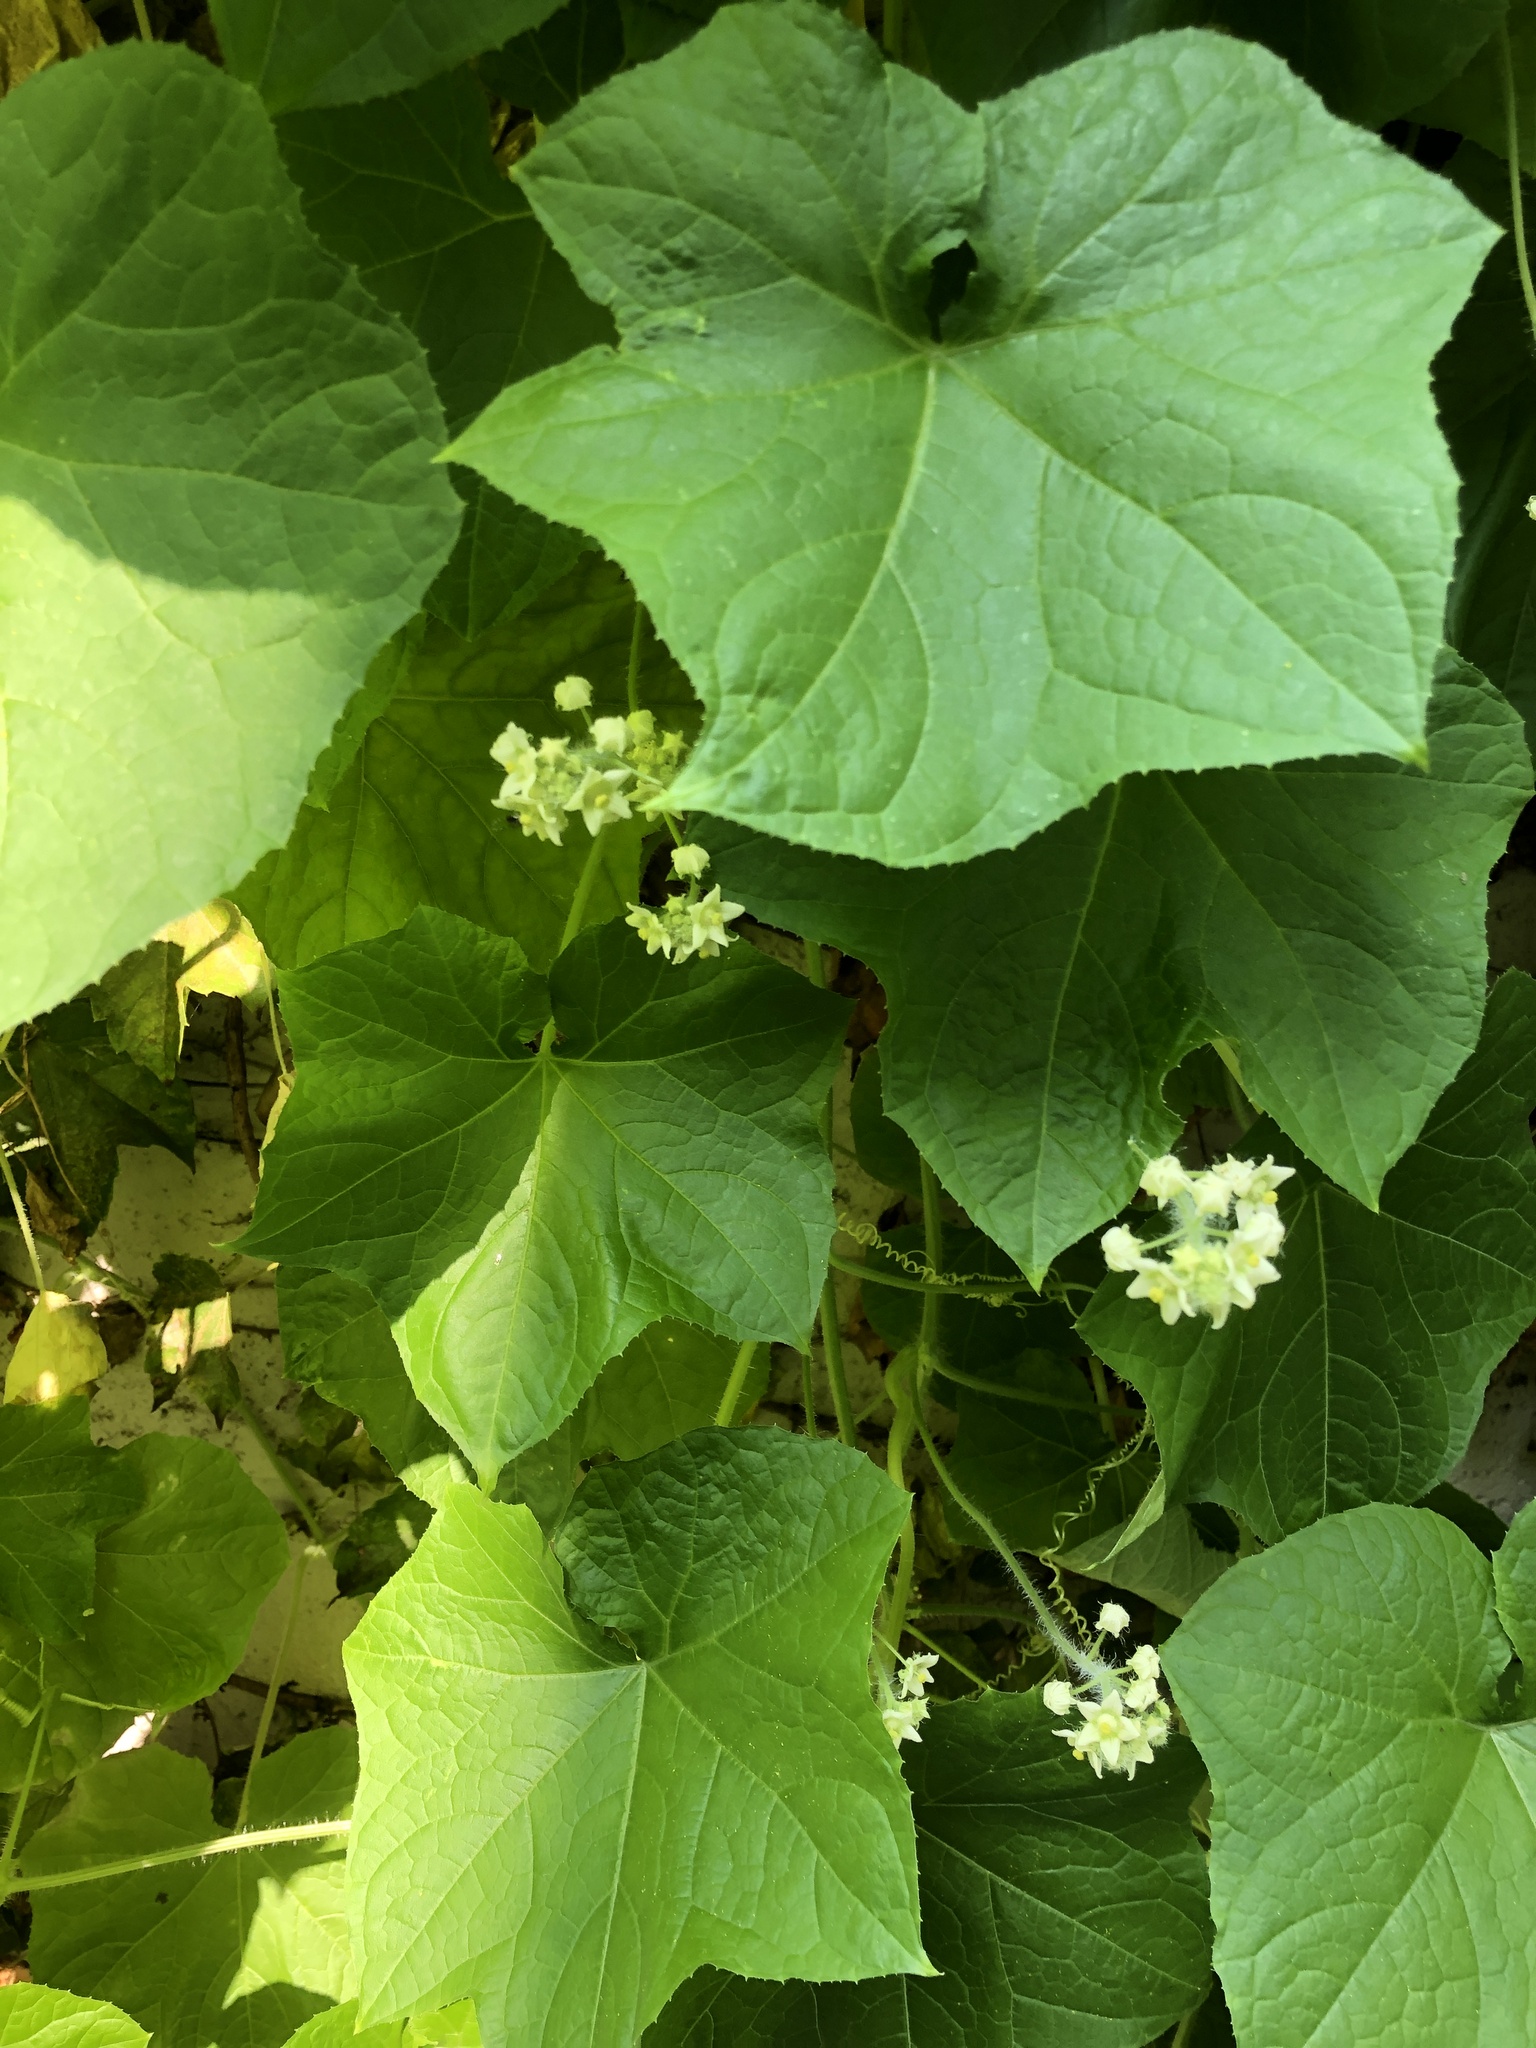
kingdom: Plantae
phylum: Tracheophyta
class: Magnoliopsida
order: Cucurbitales
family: Cucurbitaceae
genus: Sicyos
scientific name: Sicyos angulatus
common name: Angled burr cucumber
